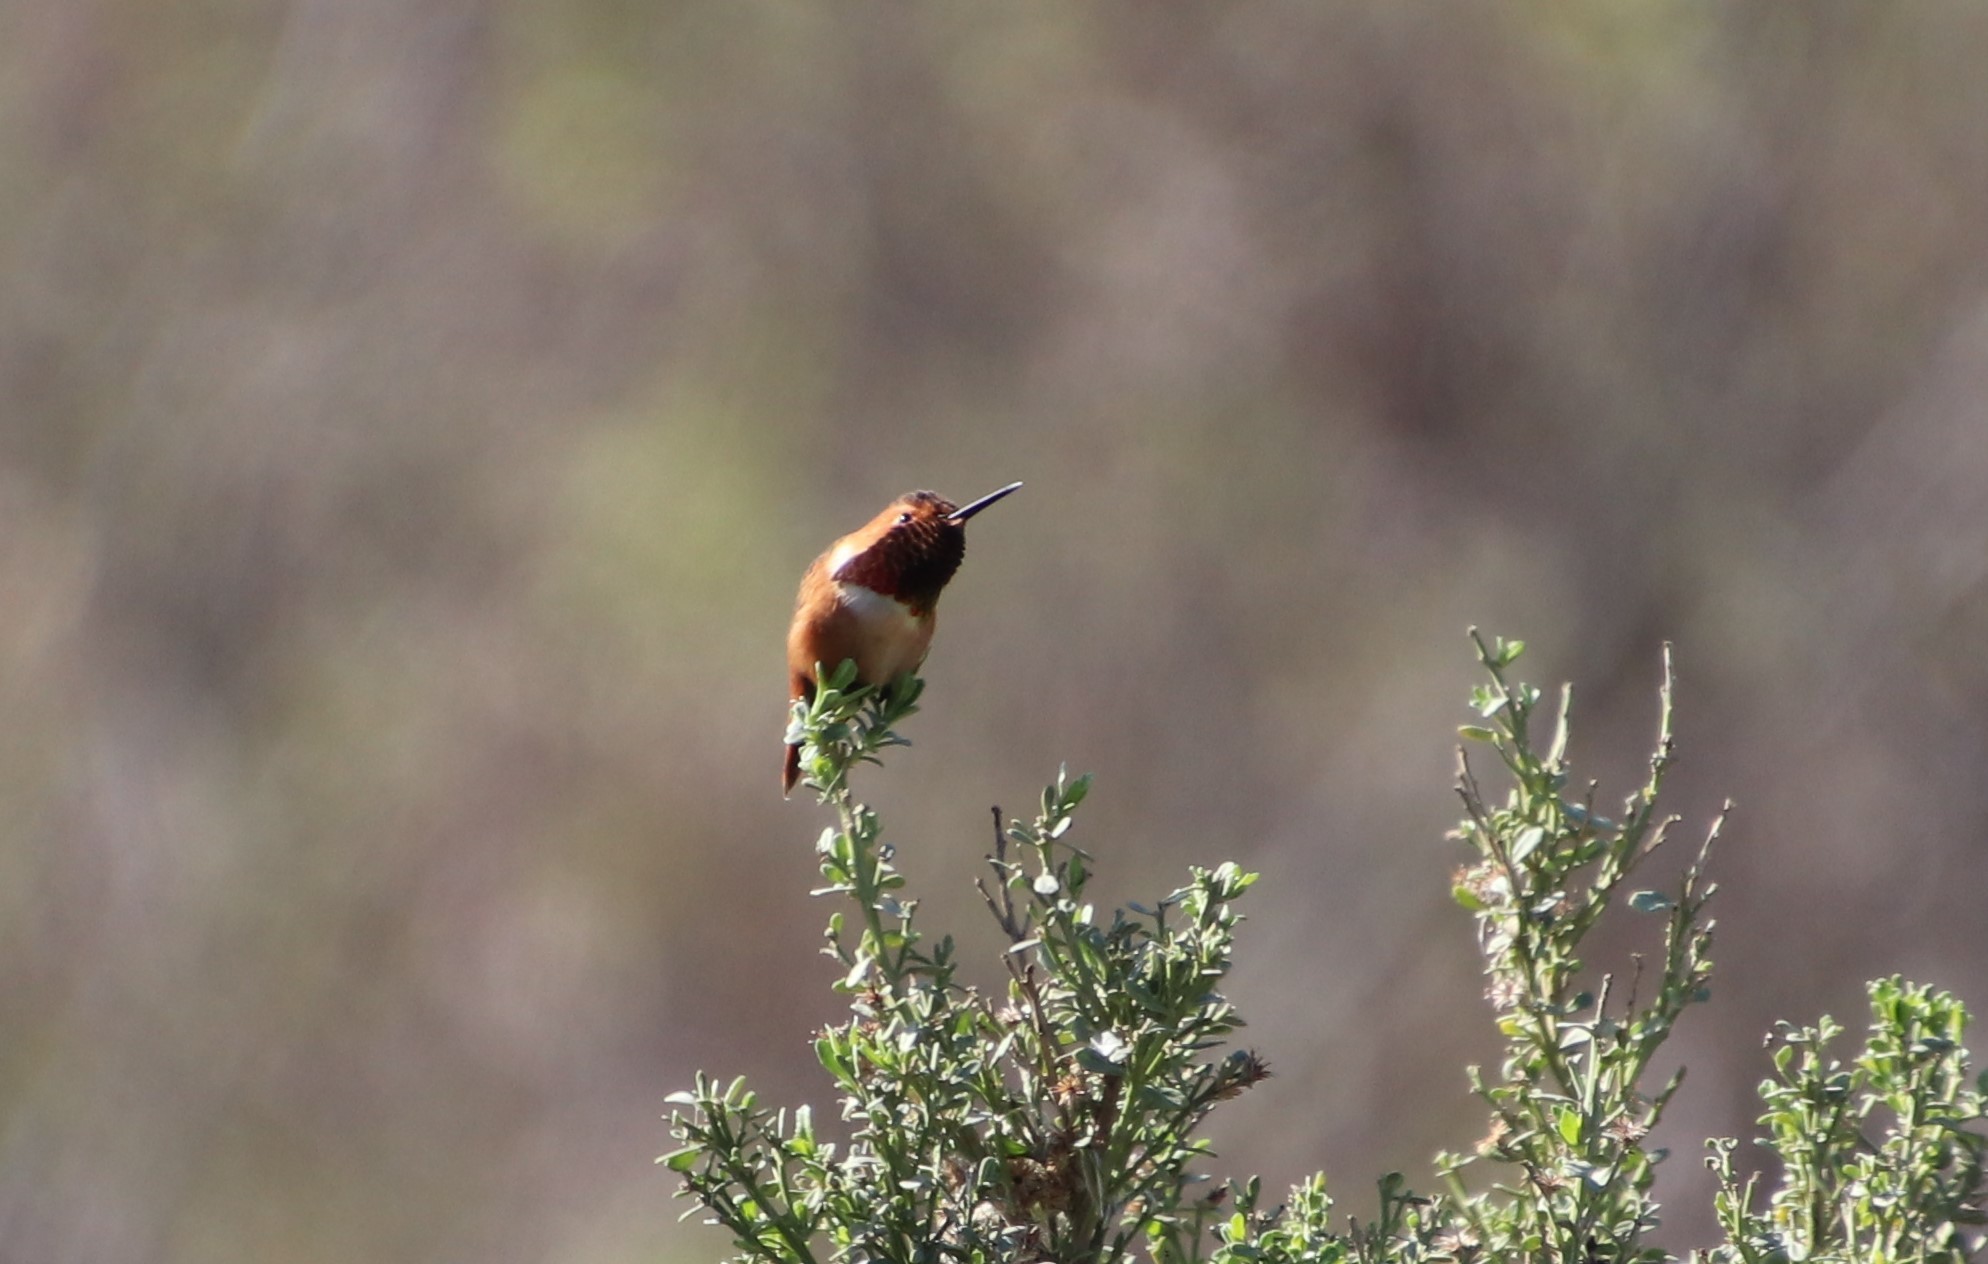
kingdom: Animalia
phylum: Chordata
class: Aves
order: Apodiformes
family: Trochilidae
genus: Selasphorus
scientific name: Selasphorus sasin
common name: Allen's hummingbird
